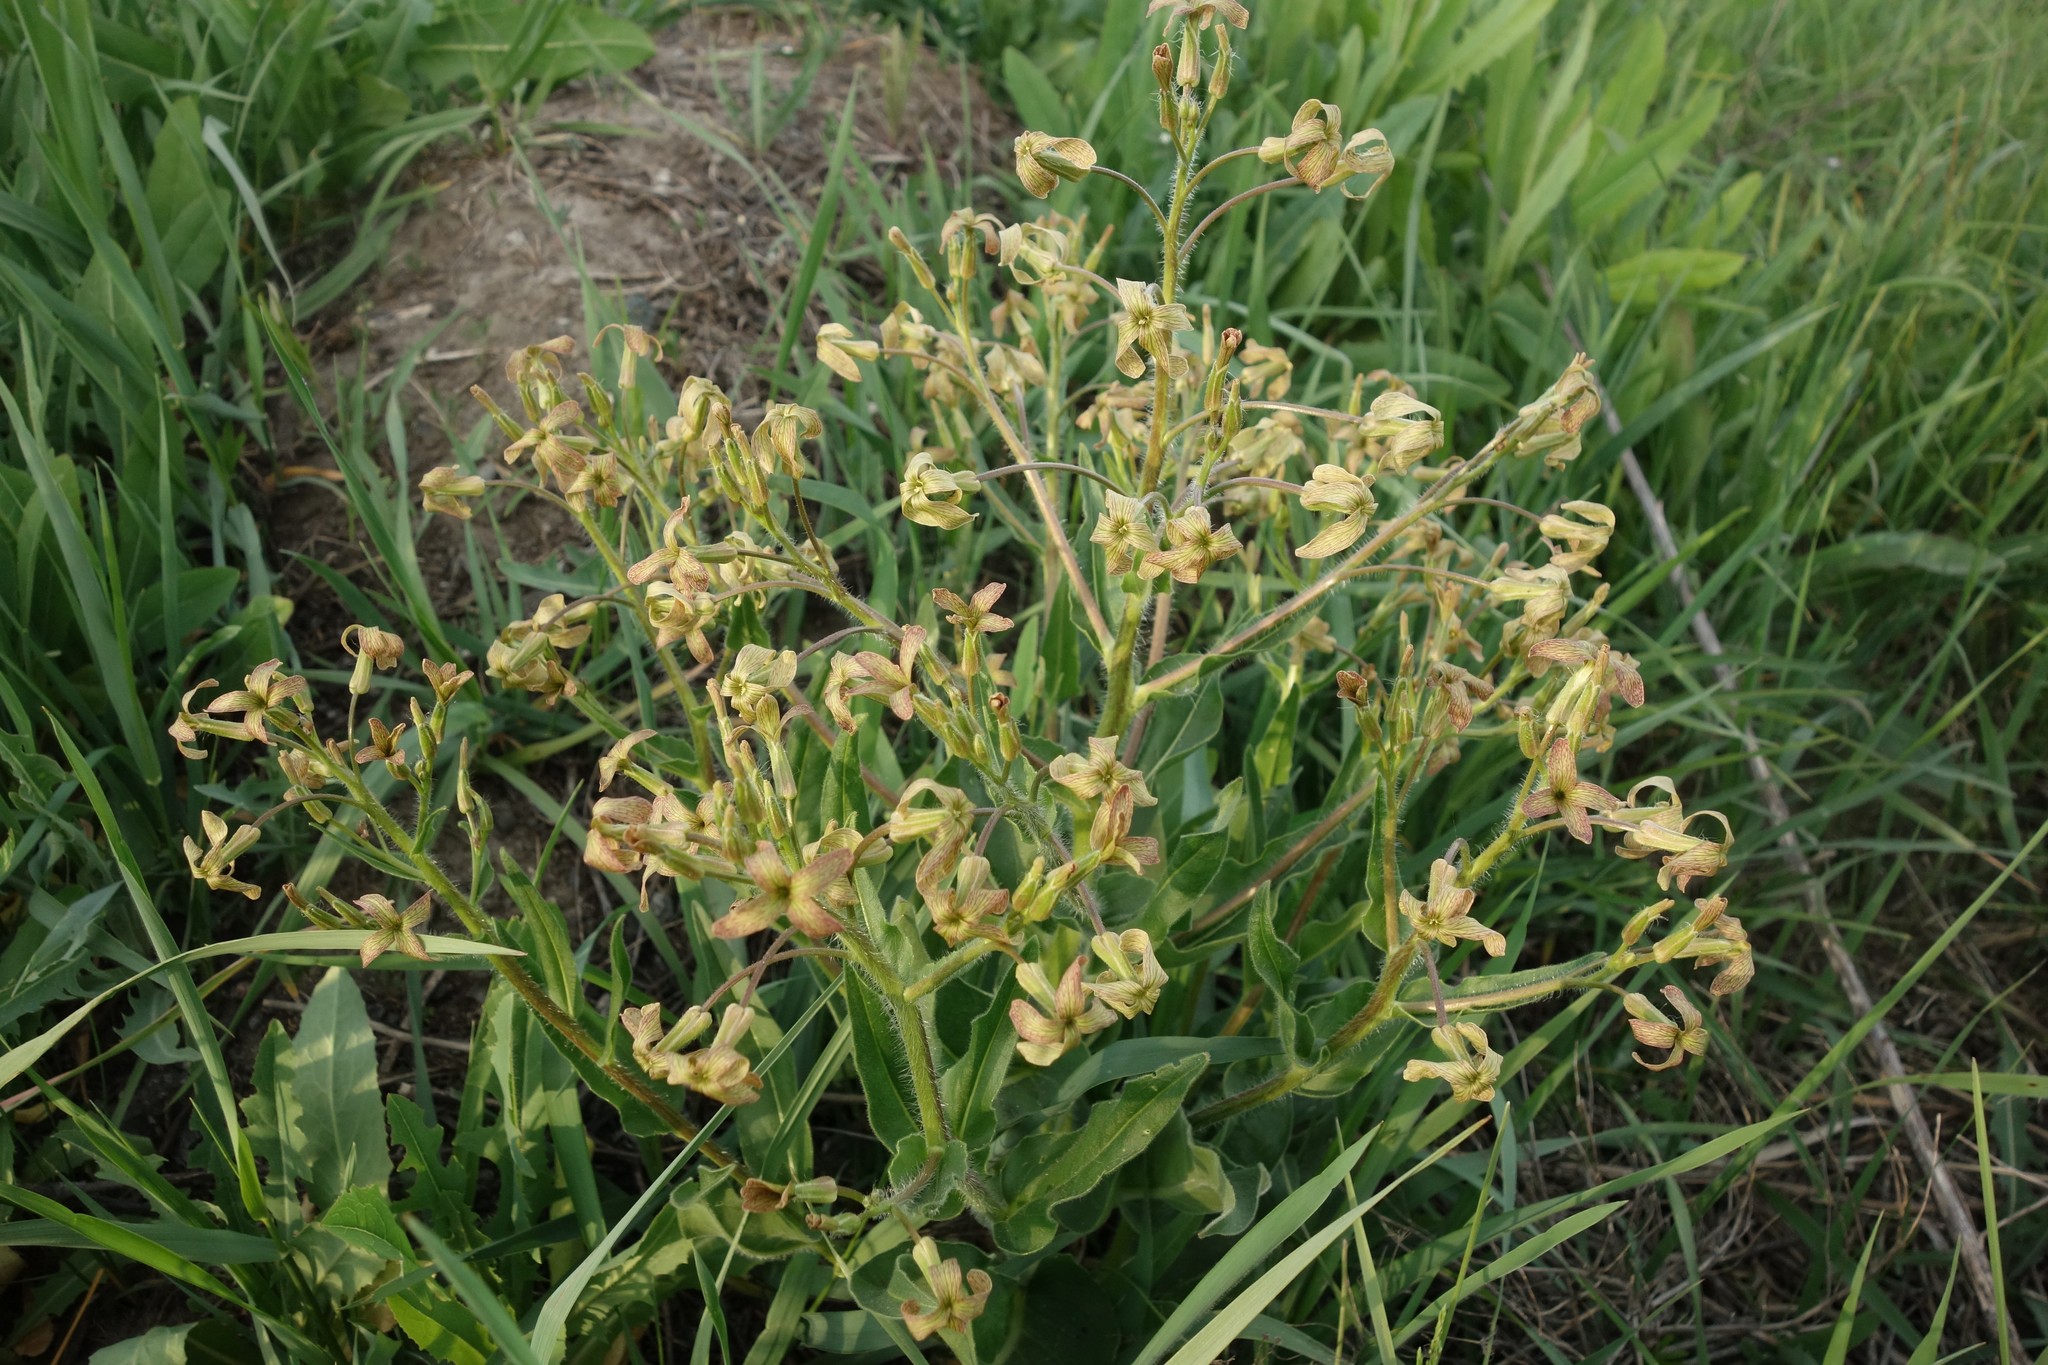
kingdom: Plantae
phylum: Tracheophyta
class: Magnoliopsida
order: Brassicales
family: Brassicaceae
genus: Hesperis
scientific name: Hesperis tristis
